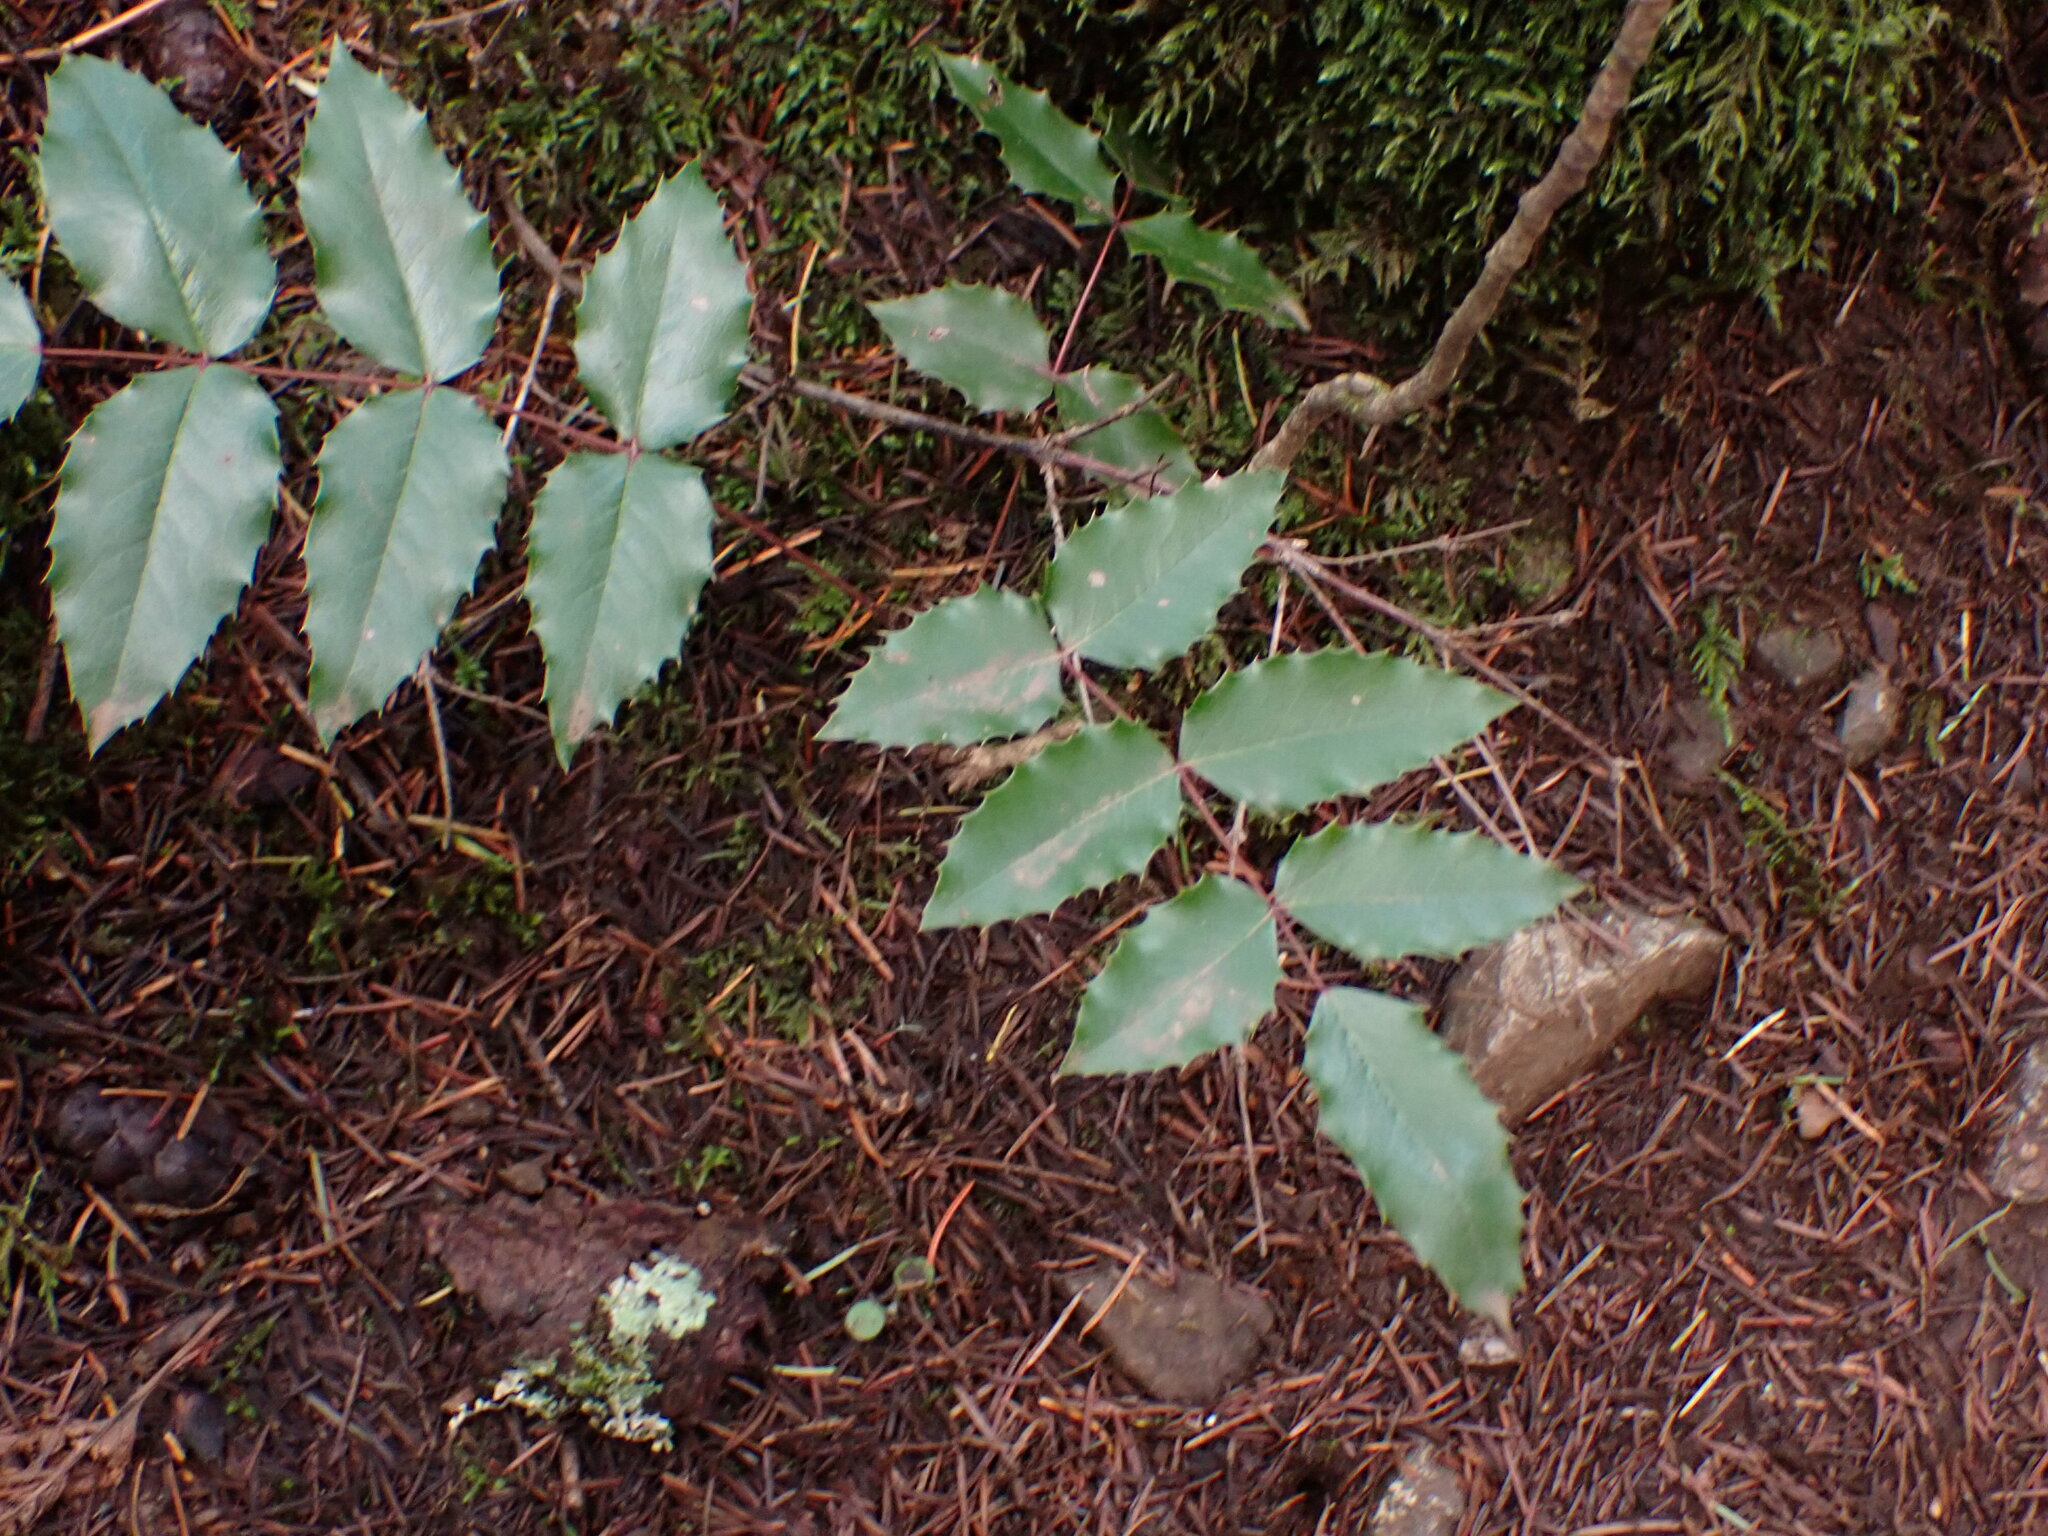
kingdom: Plantae
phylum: Tracheophyta
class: Magnoliopsida
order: Ranunculales
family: Berberidaceae
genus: Mahonia
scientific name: Mahonia aquifolium
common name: Oregon-grape
